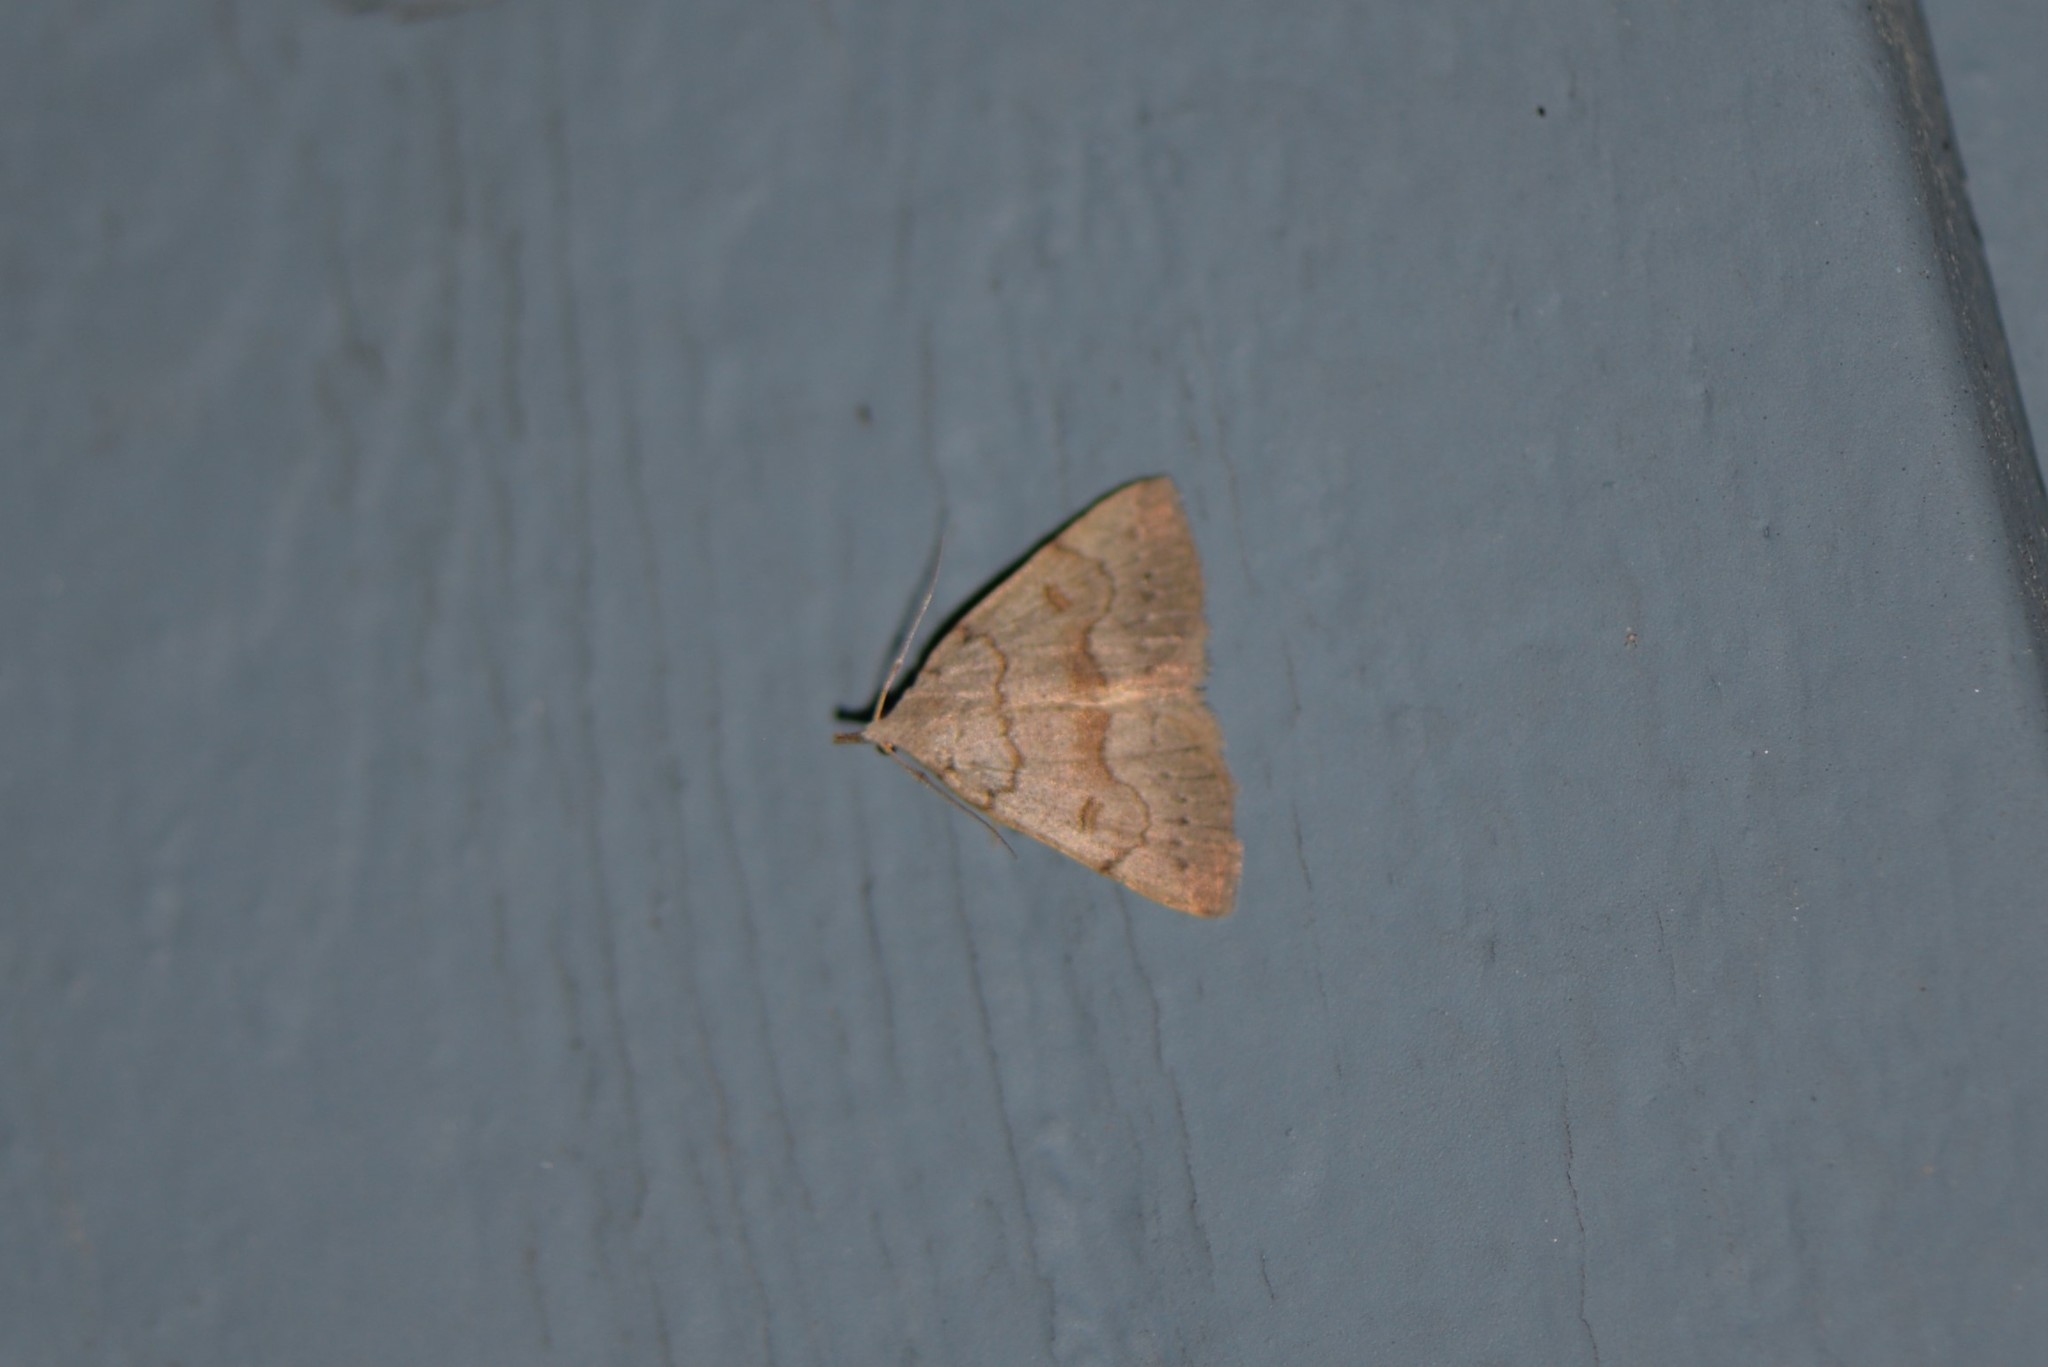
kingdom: Animalia
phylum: Arthropoda
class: Insecta
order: Lepidoptera
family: Erebidae
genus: Macrochilo
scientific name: Macrochilo morbidalis
